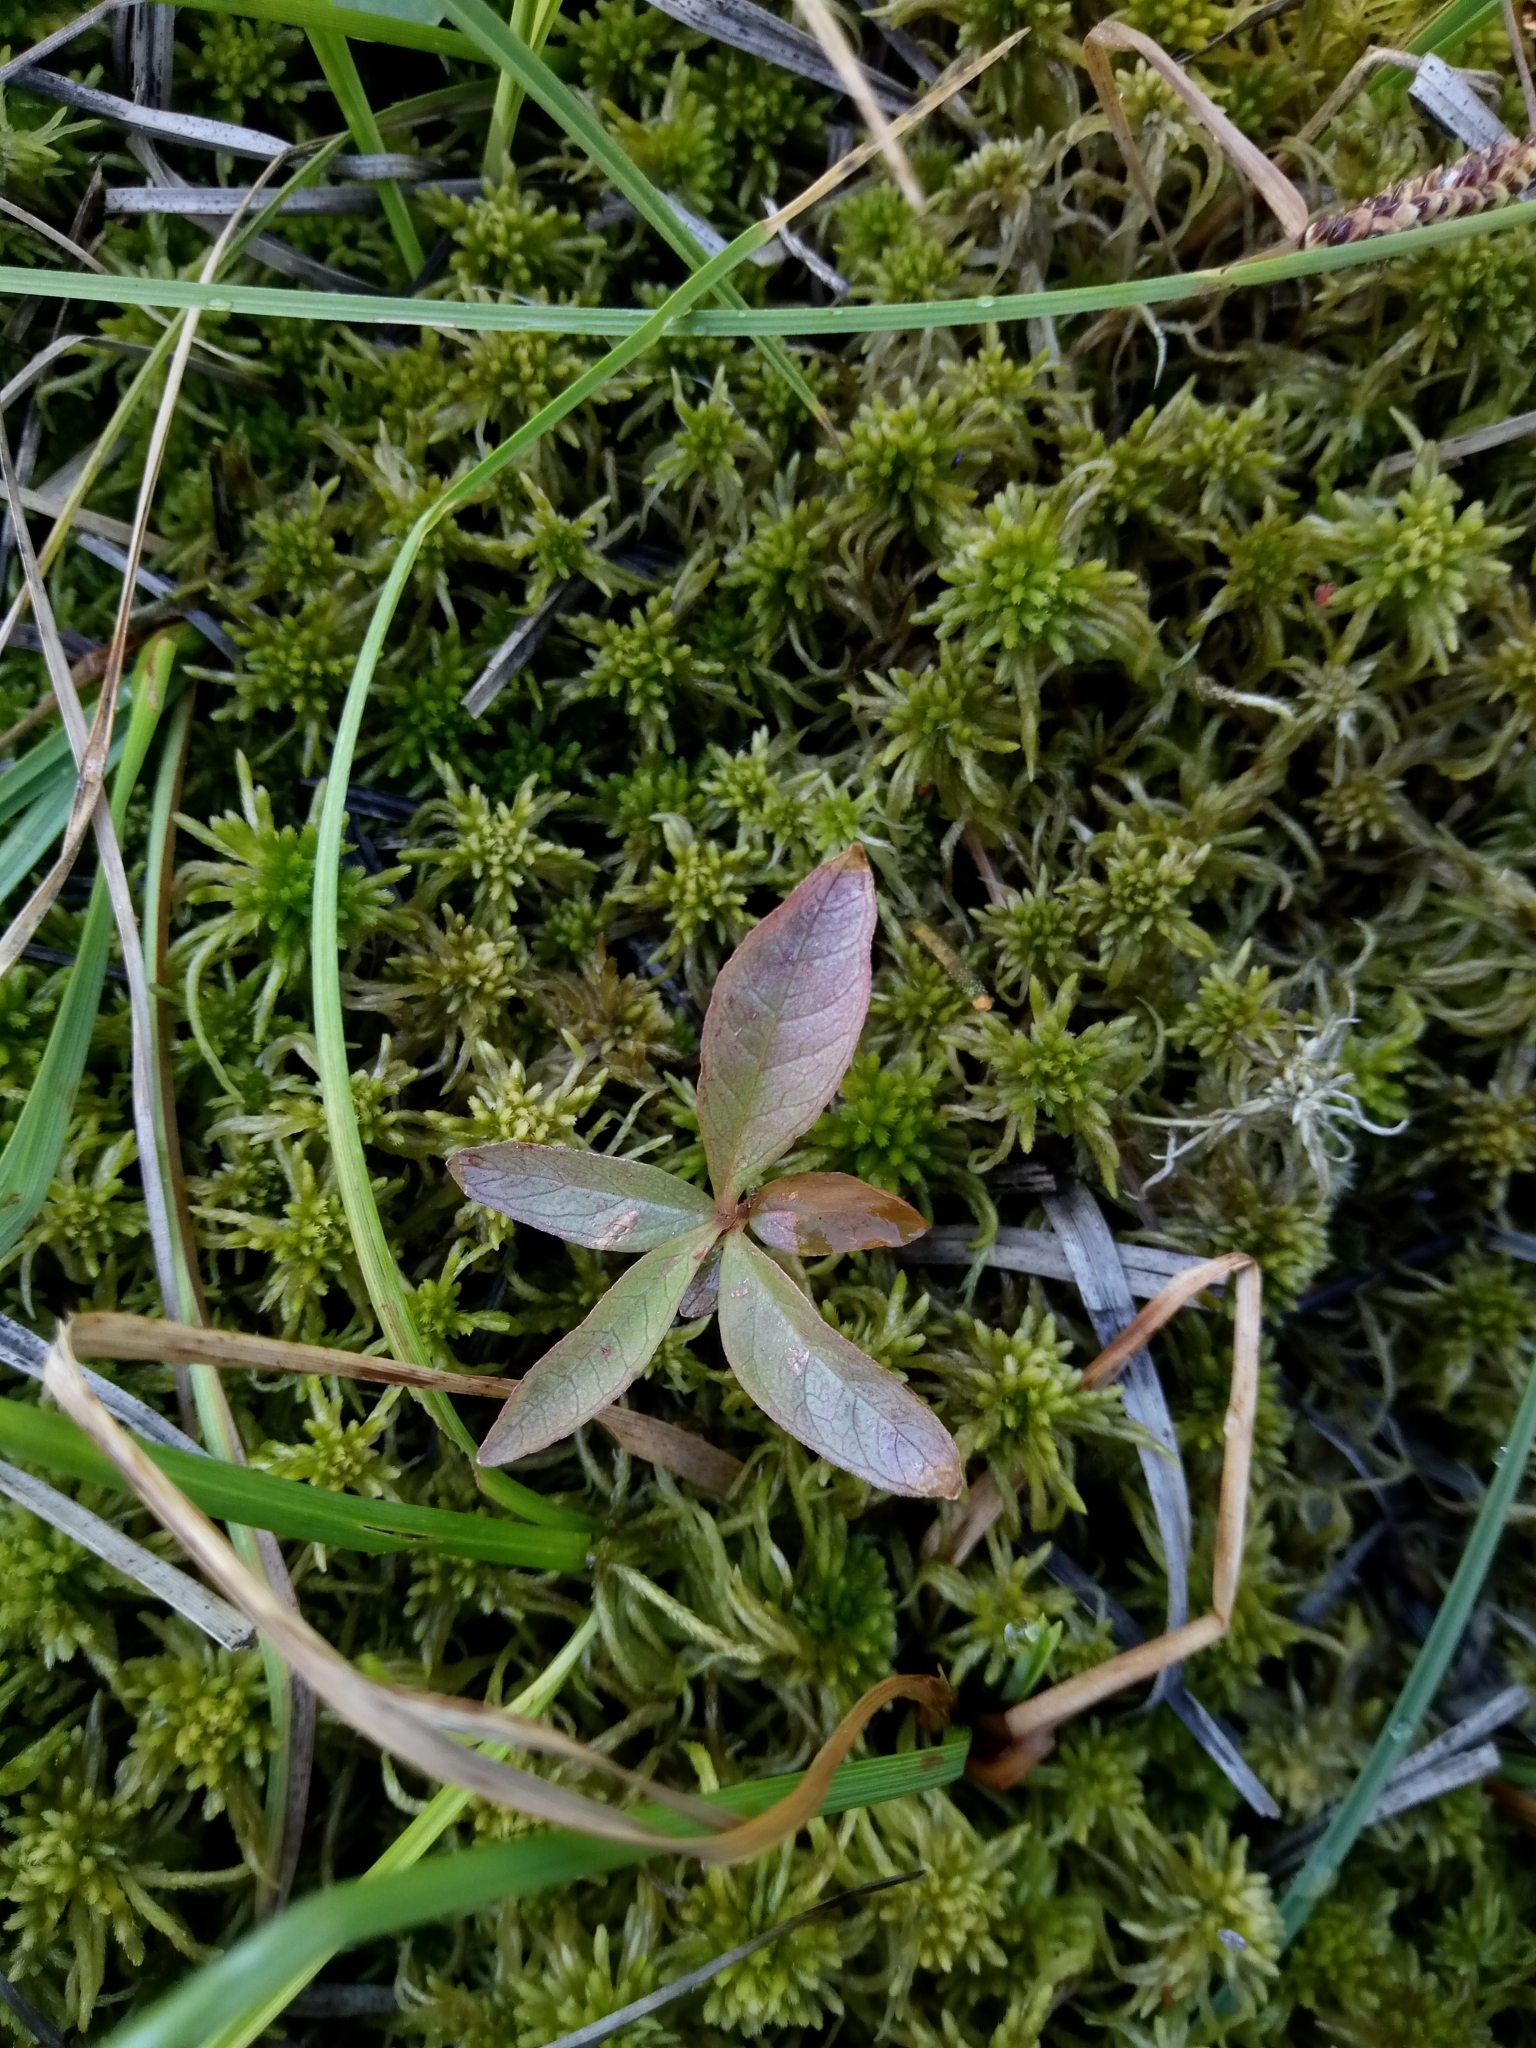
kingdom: Plantae
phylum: Tracheophyta
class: Magnoliopsida
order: Ericales
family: Primulaceae
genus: Lysimachia
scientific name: Lysimachia europaea
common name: Arctic starflower
